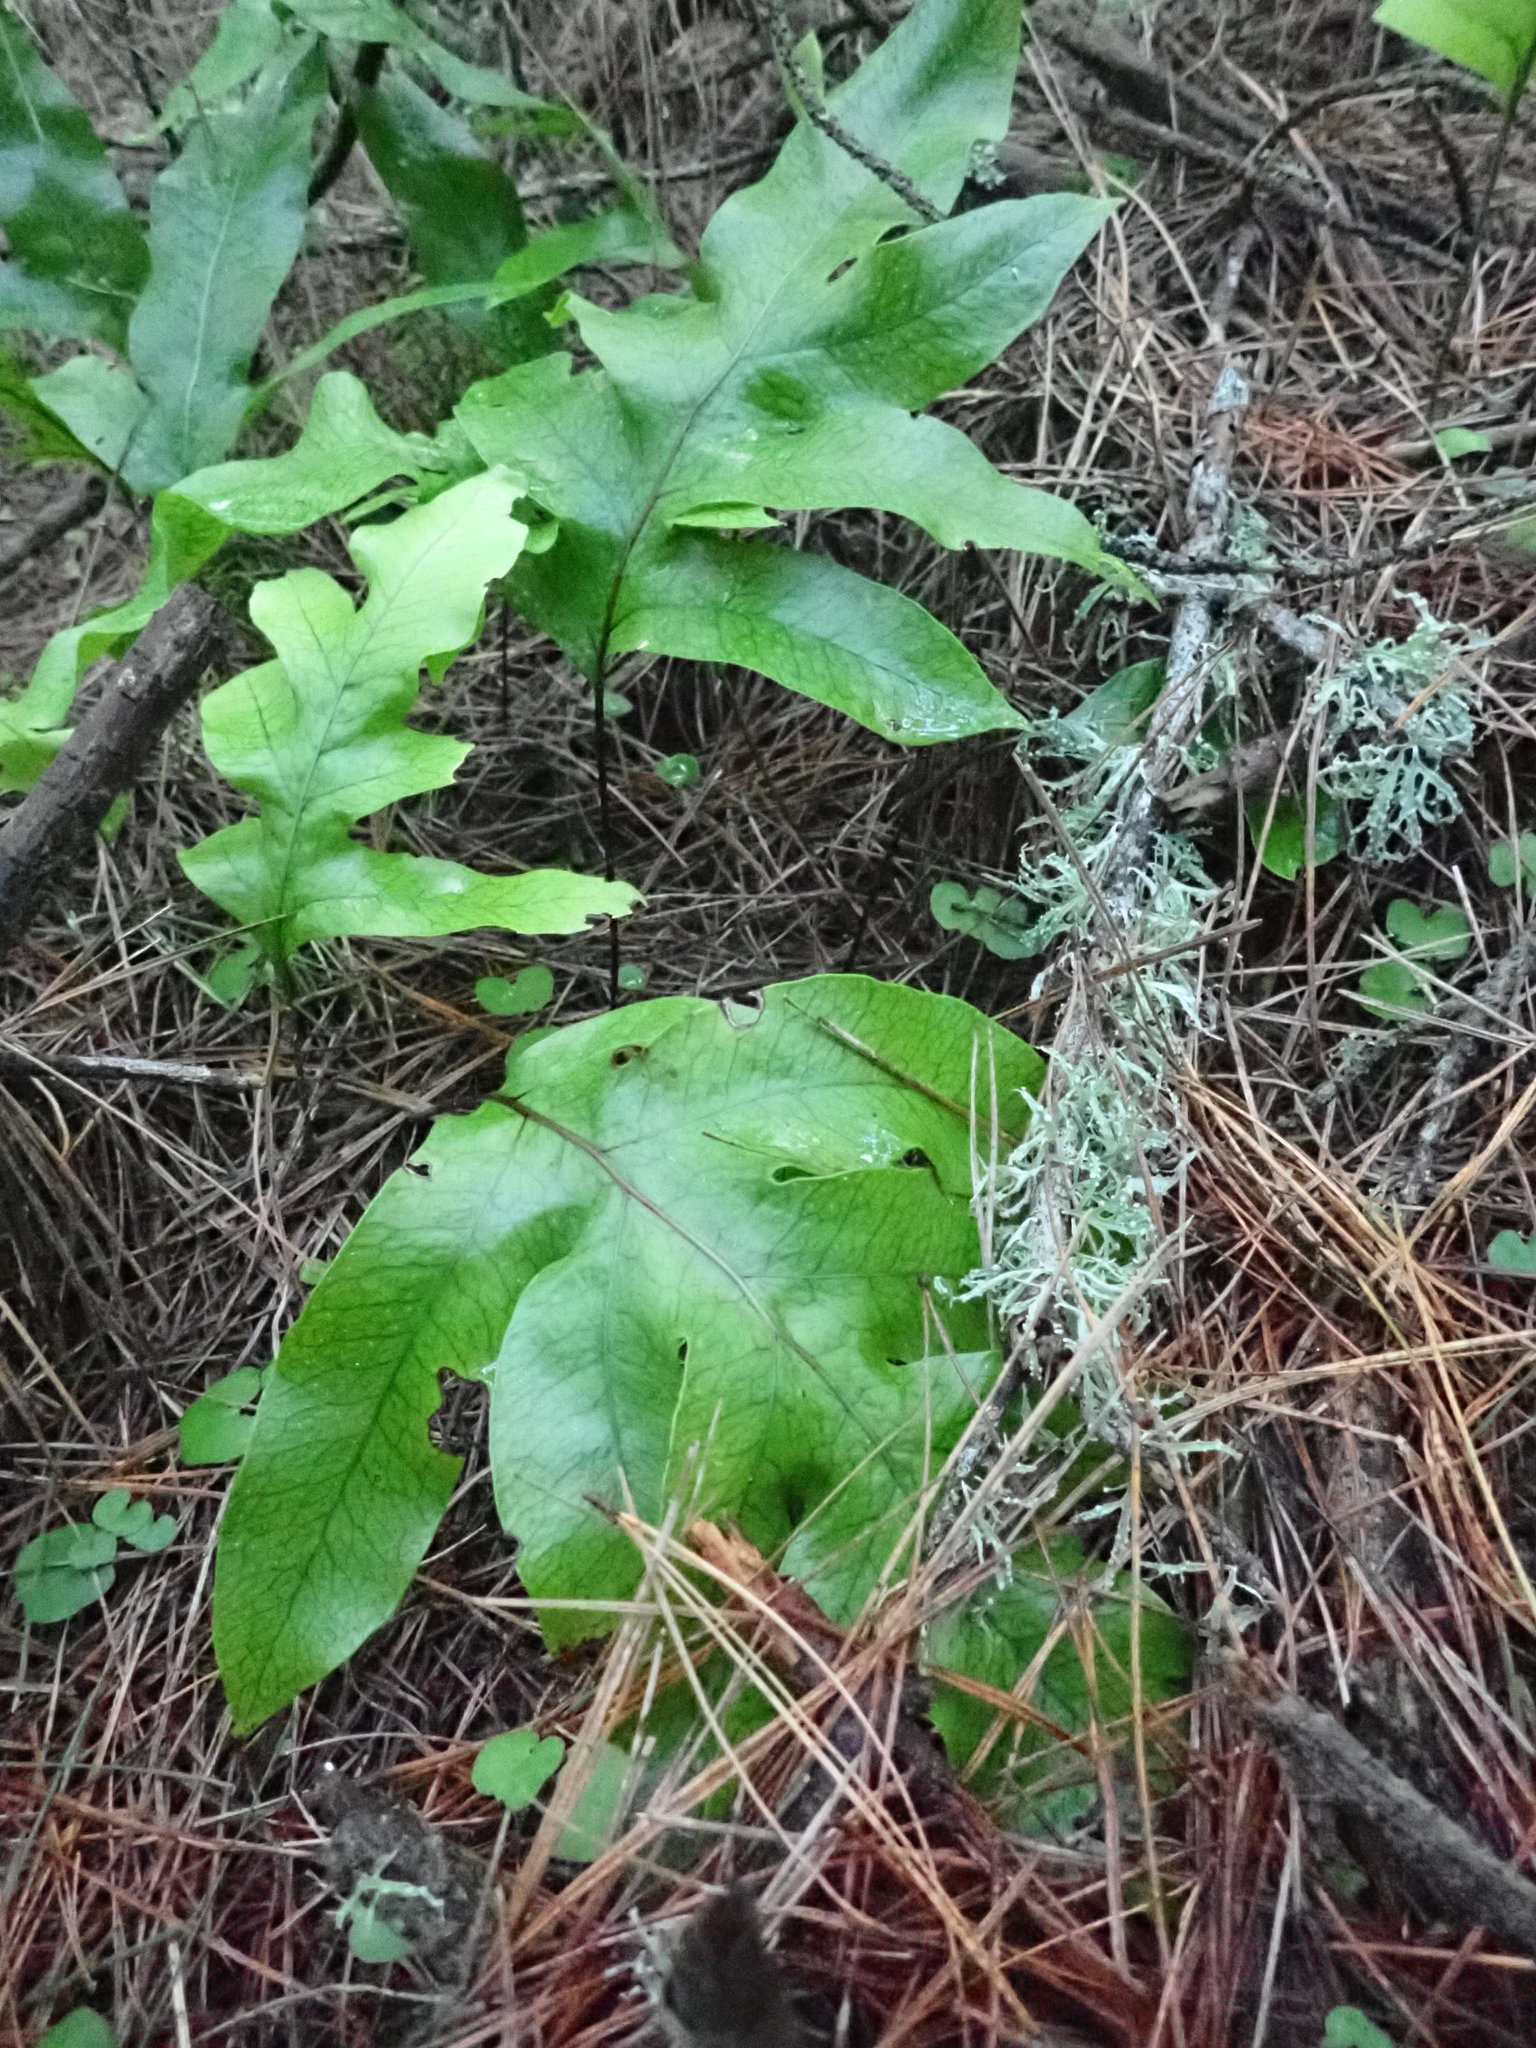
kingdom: Plantae
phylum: Tracheophyta
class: Polypodiopsida
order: Polypodiales
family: Polypodiaceae
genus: Lecanopteris
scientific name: Lecanopteris pustulata
